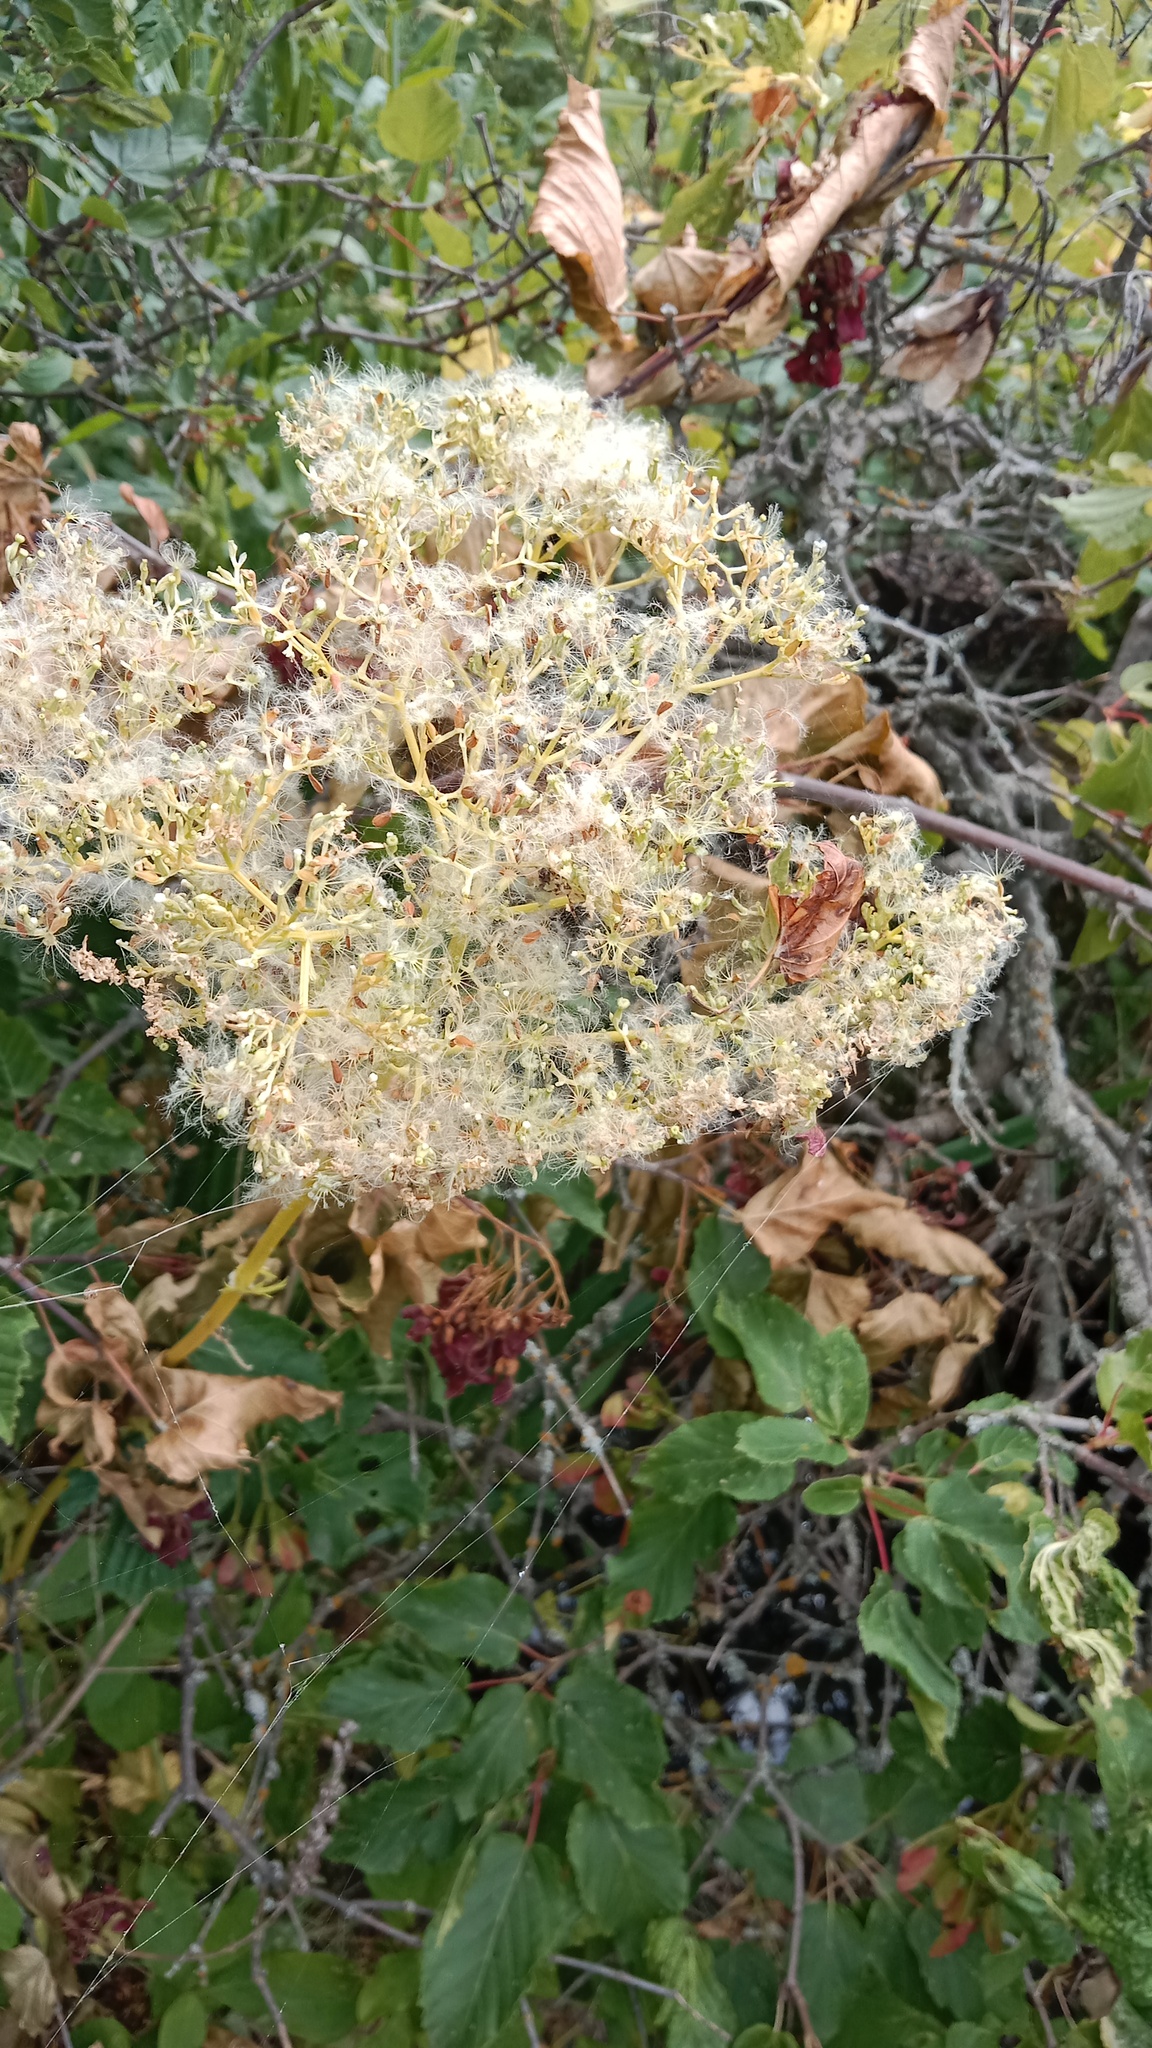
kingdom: Plantae
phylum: Tracheophyta
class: Magnoliopsida
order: Dipsacales
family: Caprifoliaceae
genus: Valeriana
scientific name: Valeriana pratensis
